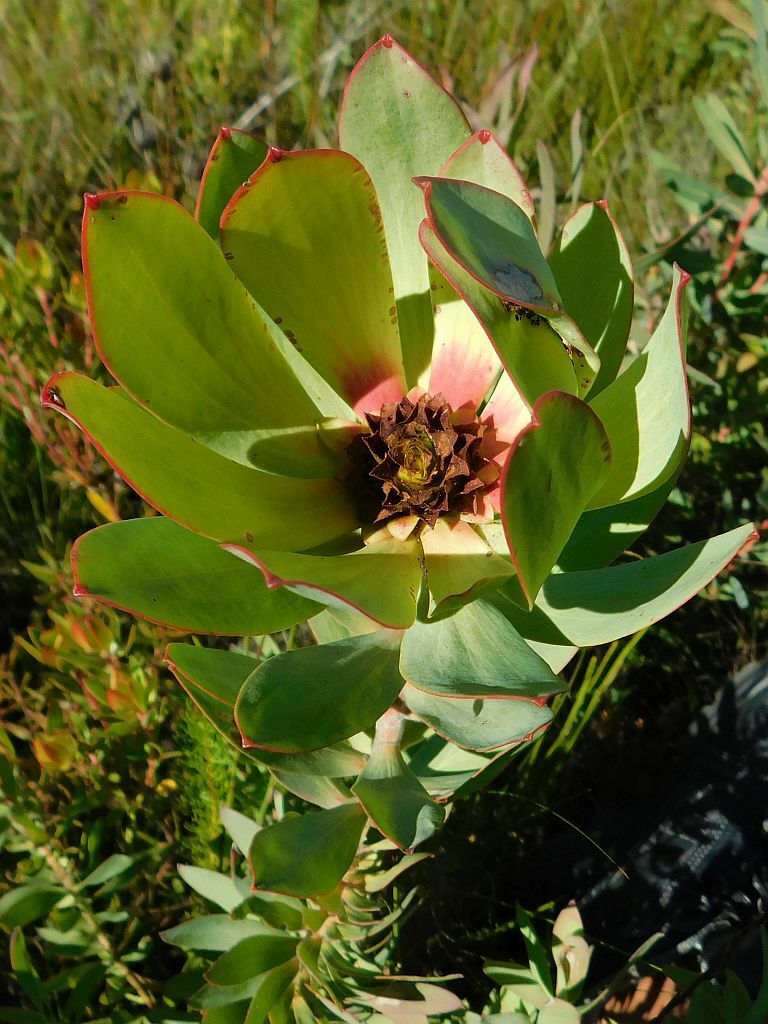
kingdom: Plantae
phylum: Tracheophyta
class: Magnoliopsida
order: Proteales
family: Proteaceae
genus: Leucadendron
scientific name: Leucadendron tinctum
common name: Spicy conebush
